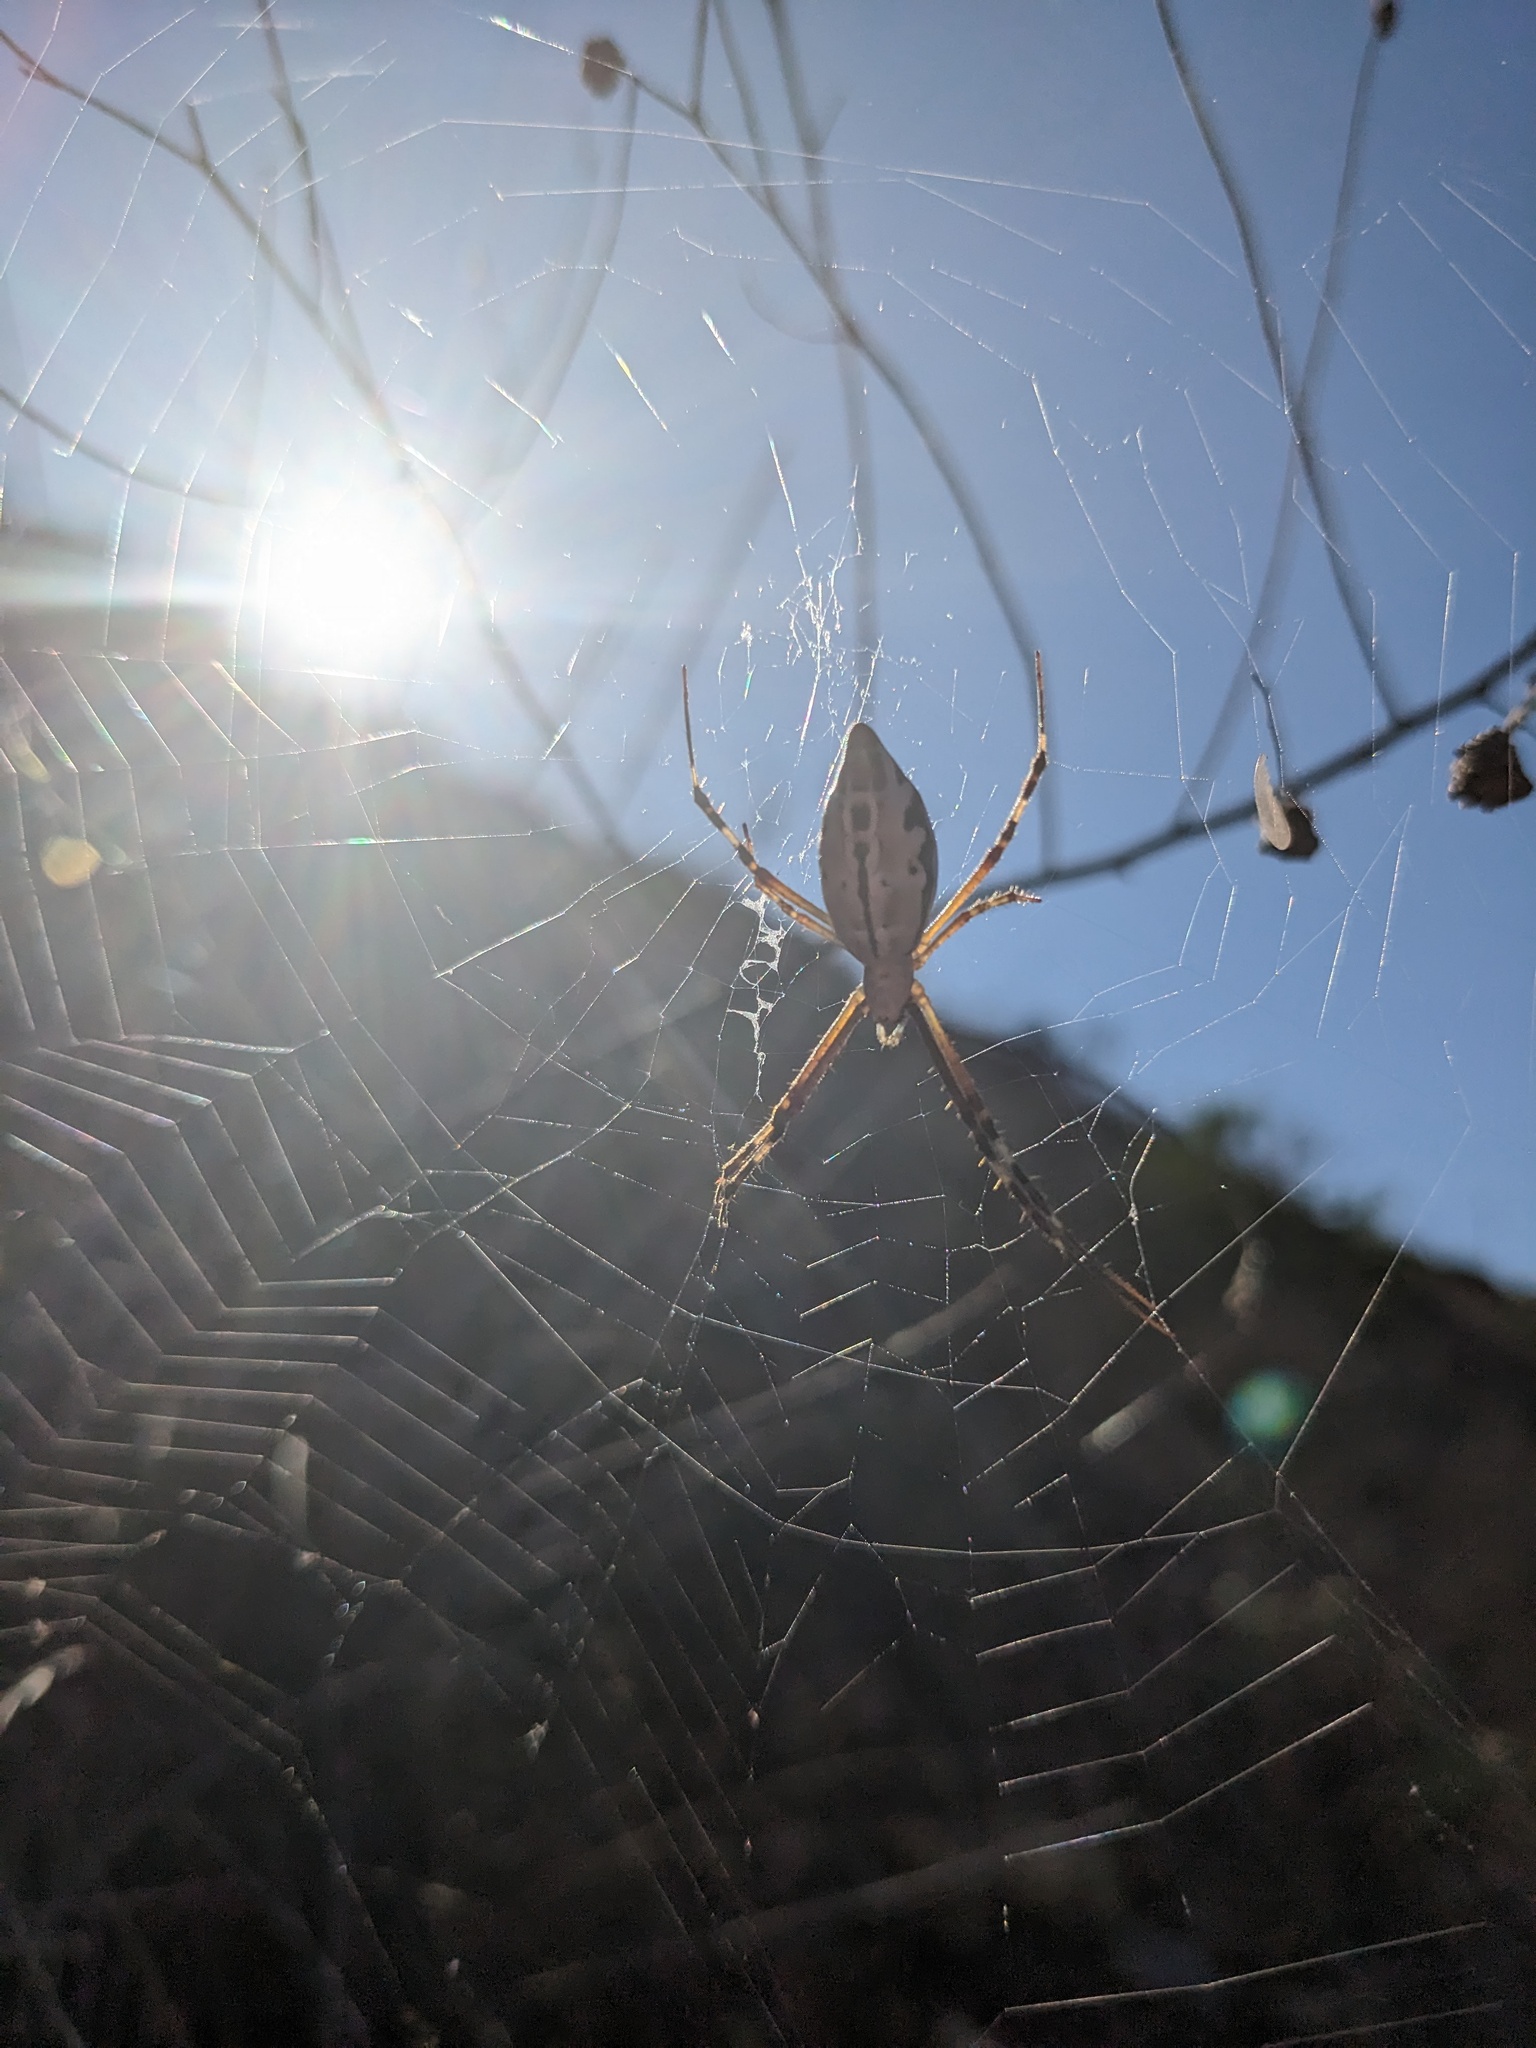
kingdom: Animalia
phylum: Arthropoda
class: Arachnida
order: Araneae
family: Araneidae
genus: Argiope
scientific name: Argiope protensa
